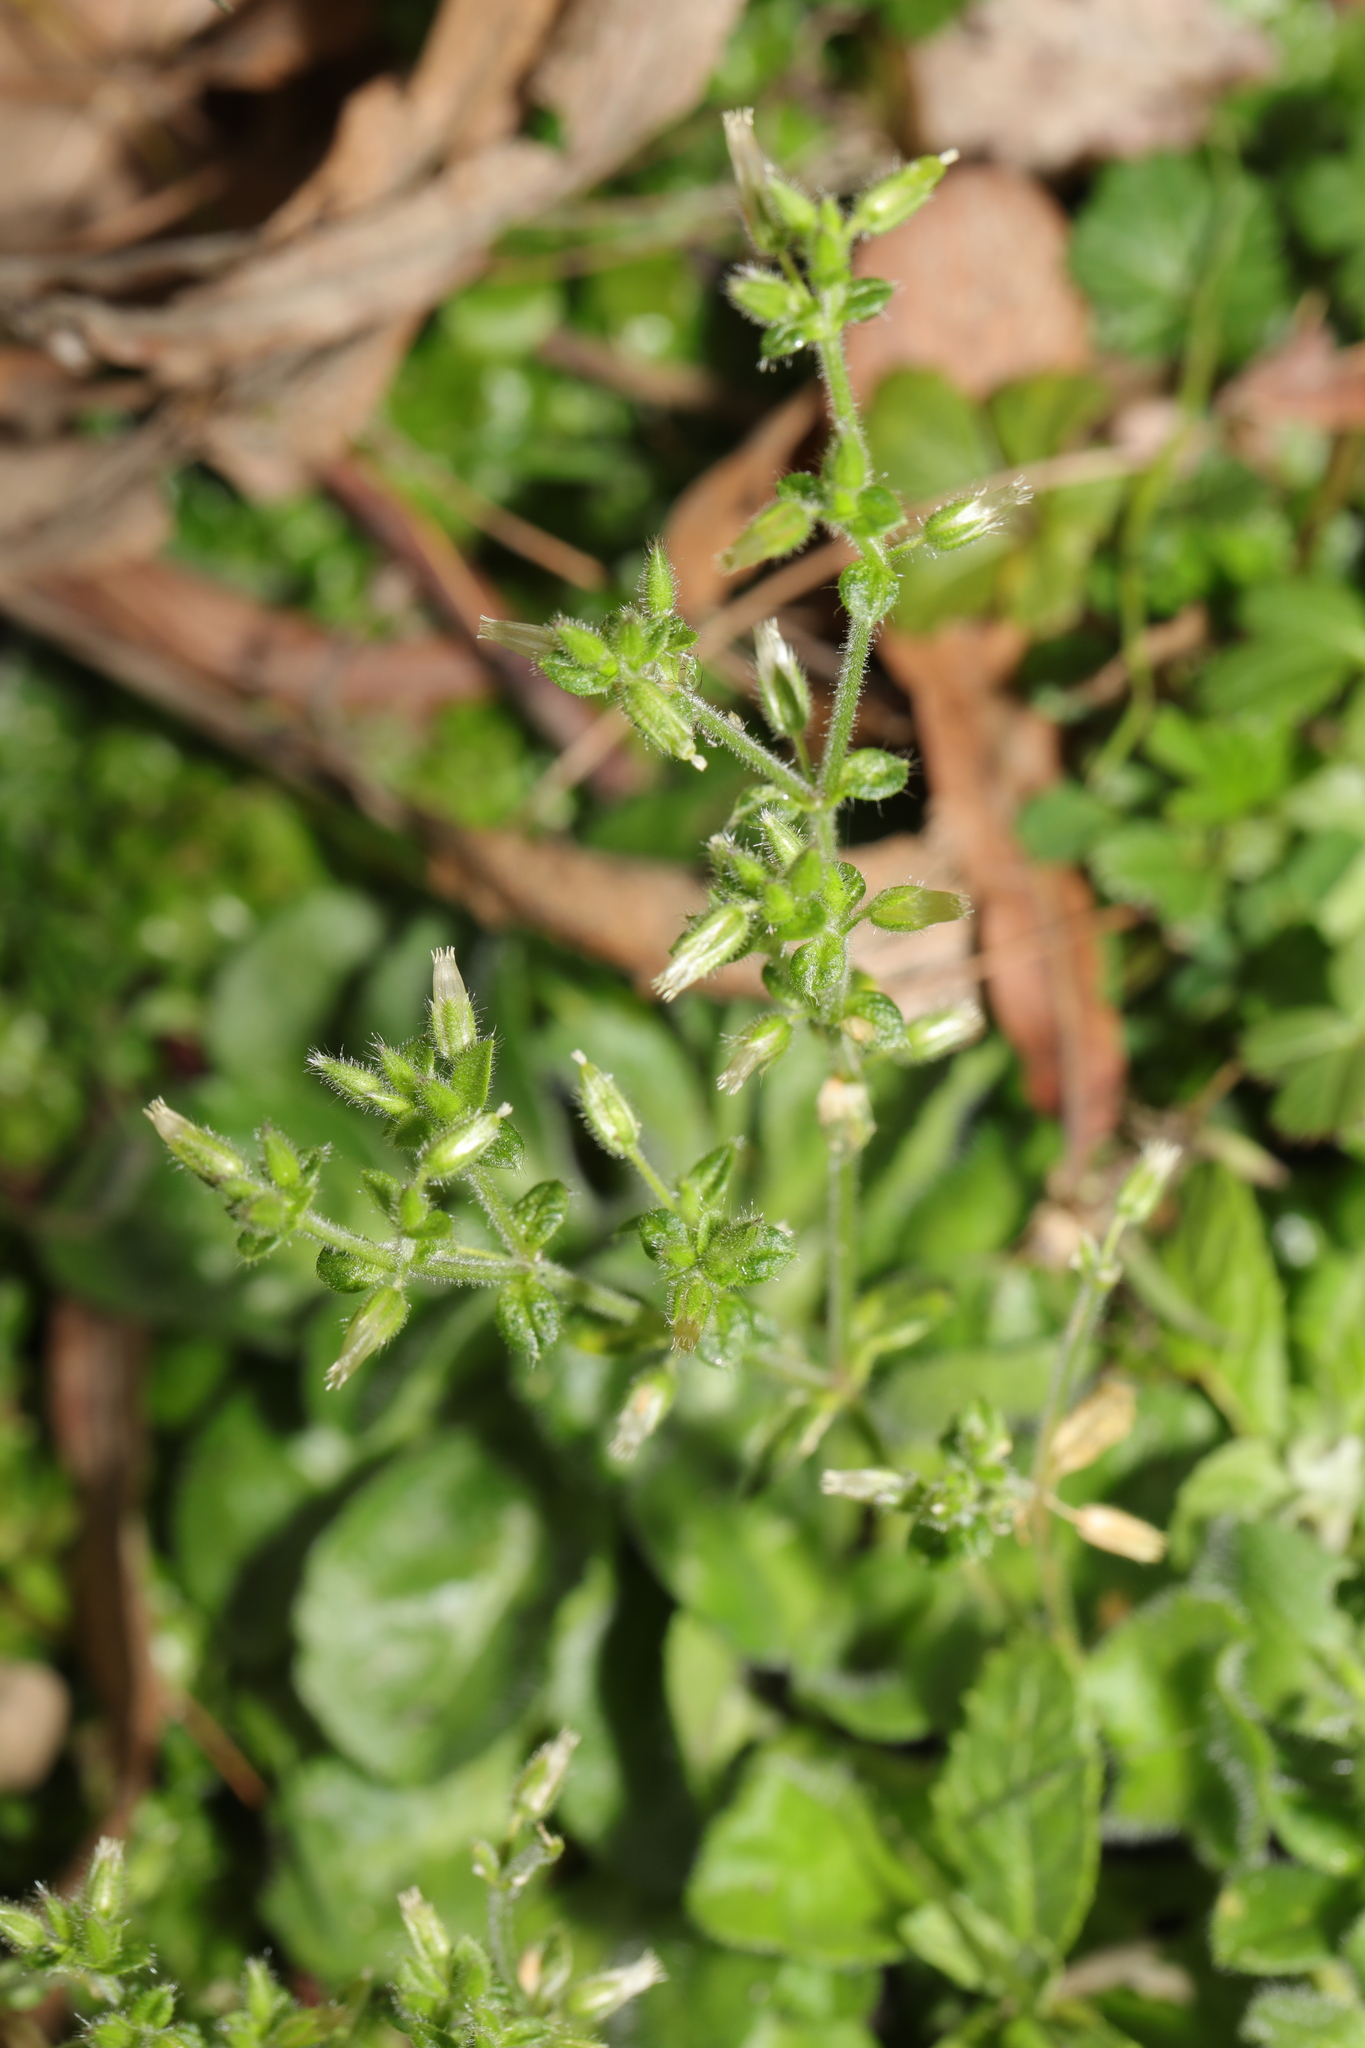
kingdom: Plantae
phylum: Tracheophyta
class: Magnoliopsida
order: Caryophyllales
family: Caryophyllaceae
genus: Cerastium
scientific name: Cerastium glomeratum
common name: Sticky chickweed
